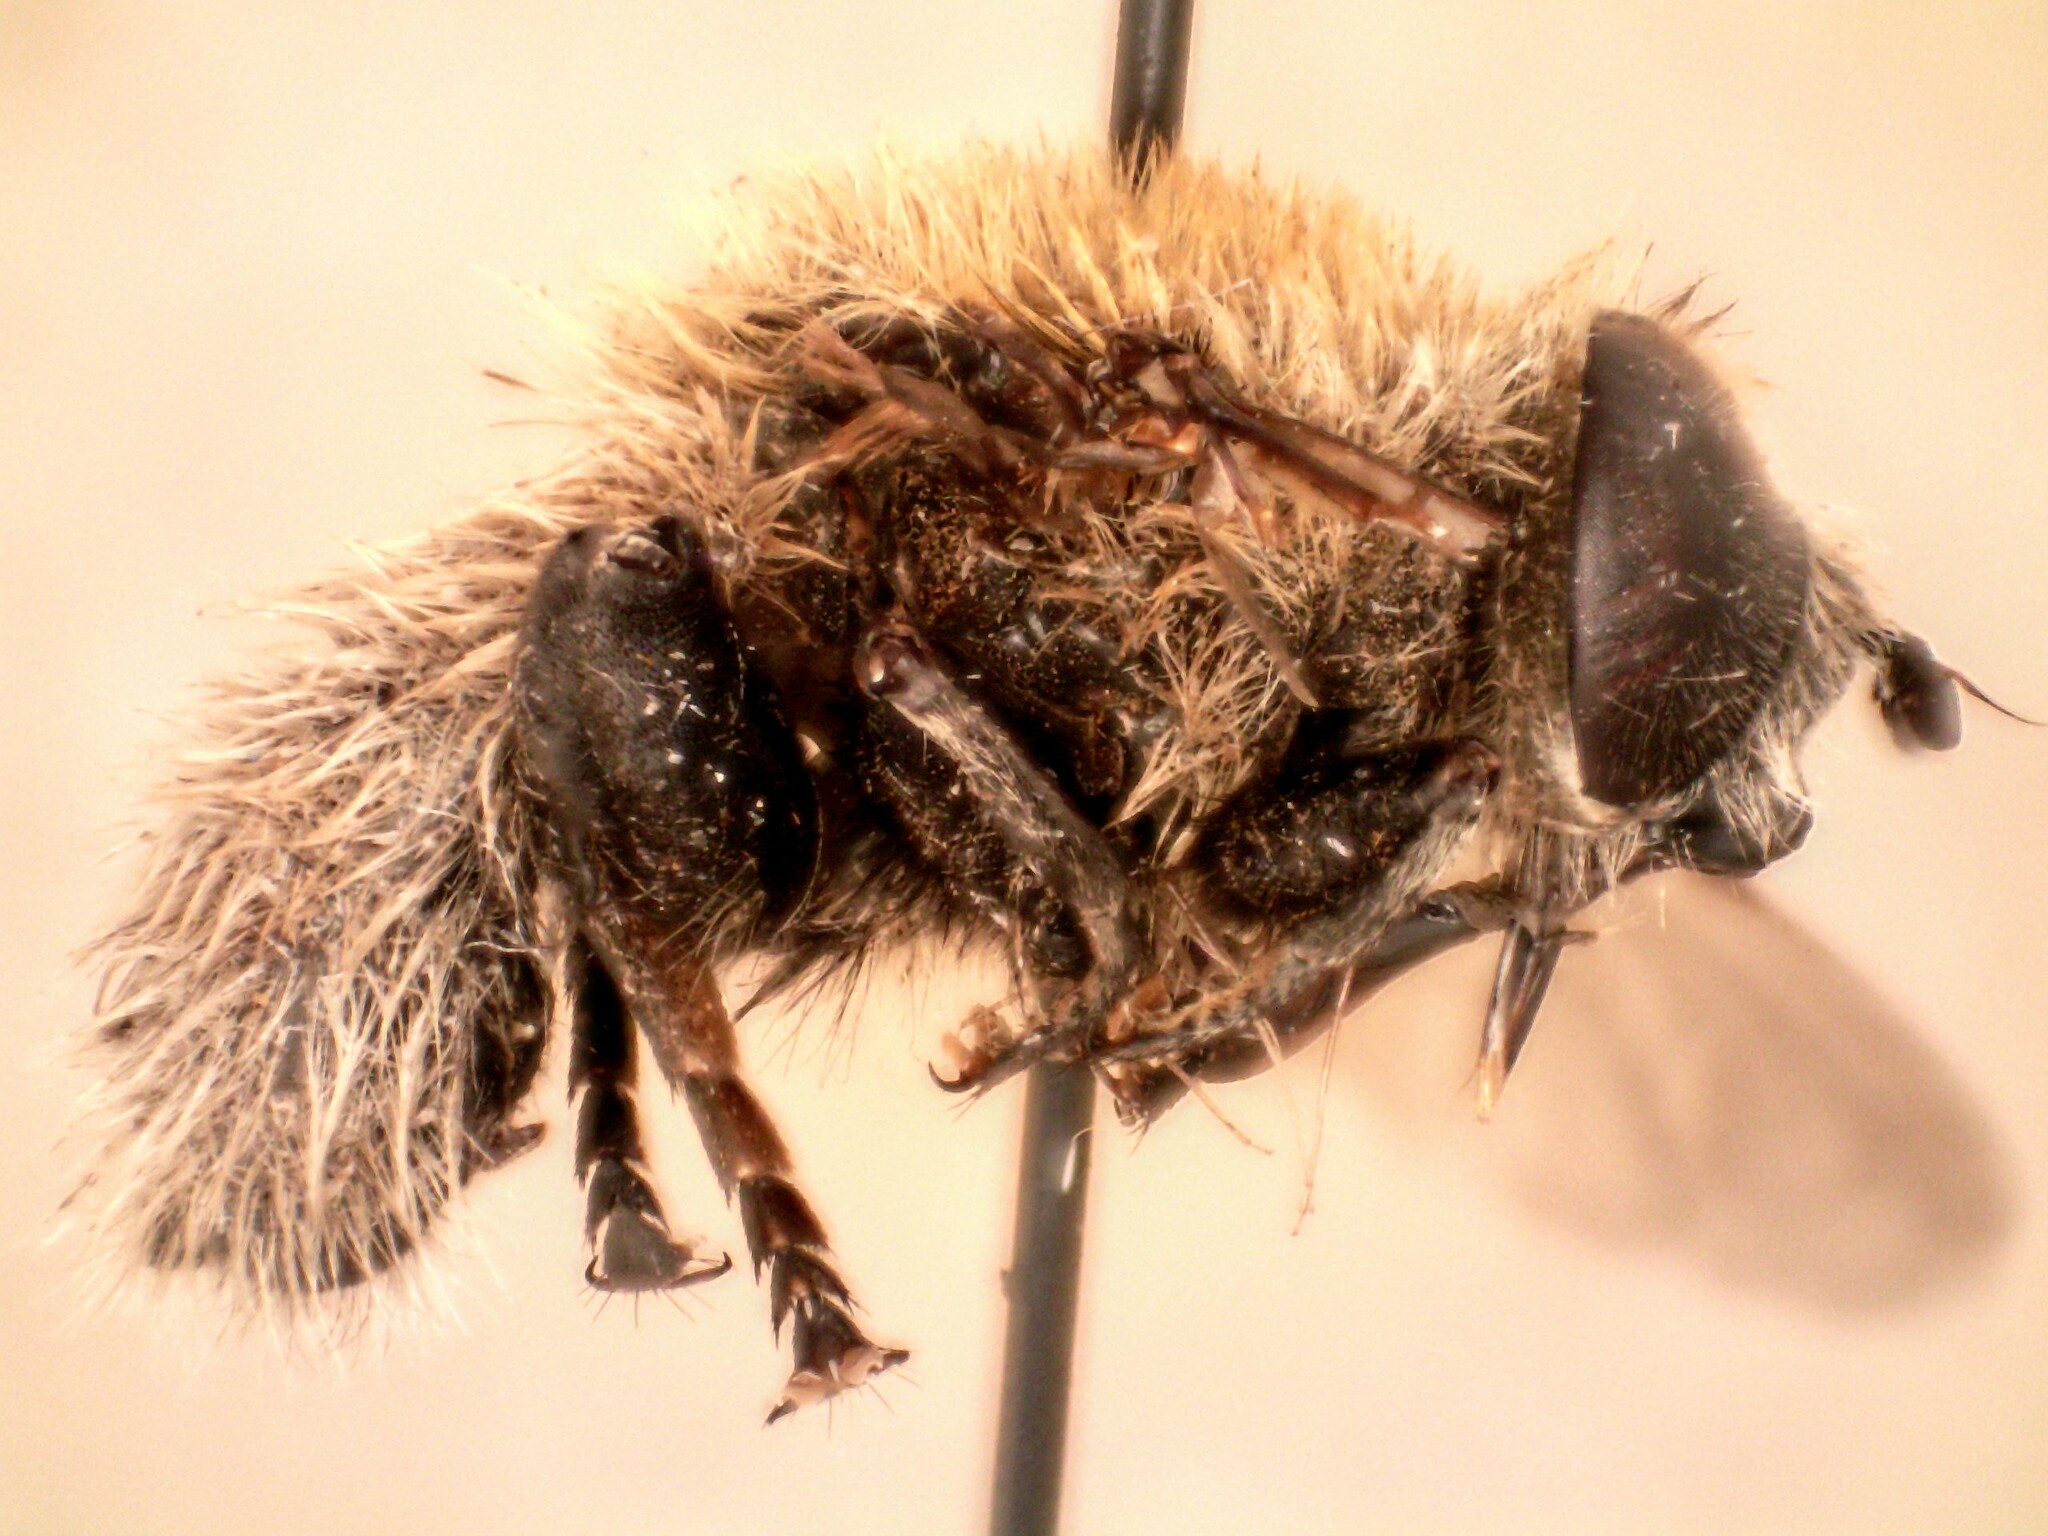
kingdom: Animalia
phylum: Arthropoda
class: Insecta
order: Diptera
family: Syrphidae
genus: Merodon
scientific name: Merodon equestris
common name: Greater bulb-fly
